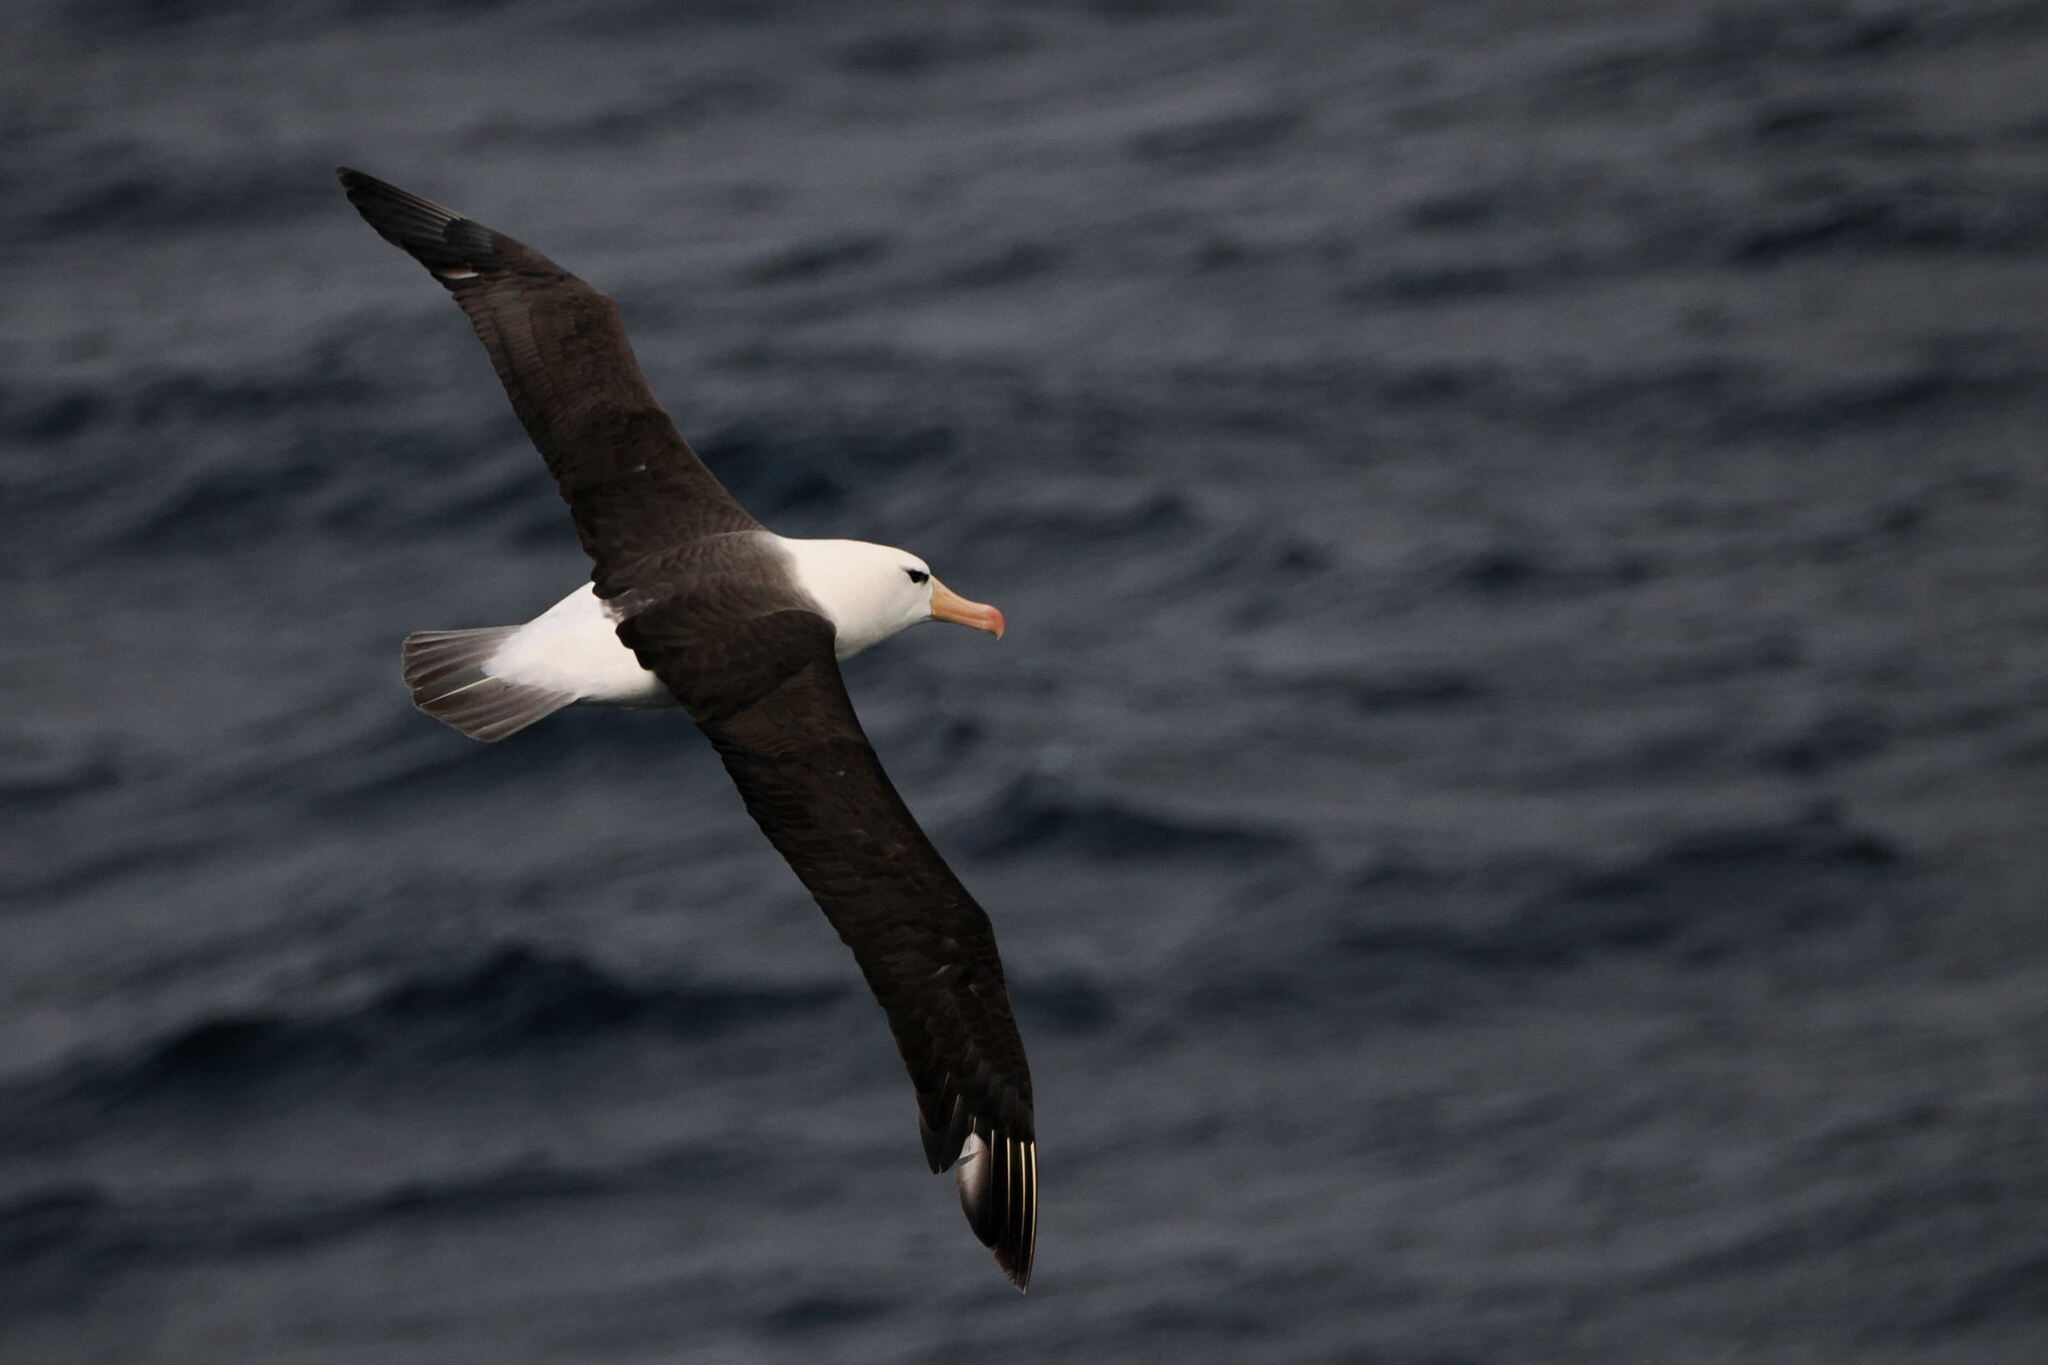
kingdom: Animalia
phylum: Chordata
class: Aves
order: Procellariiformes
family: Diomedeidae
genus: Thalassarche
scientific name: Thalassarche melanophris
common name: Black-browed albatross
